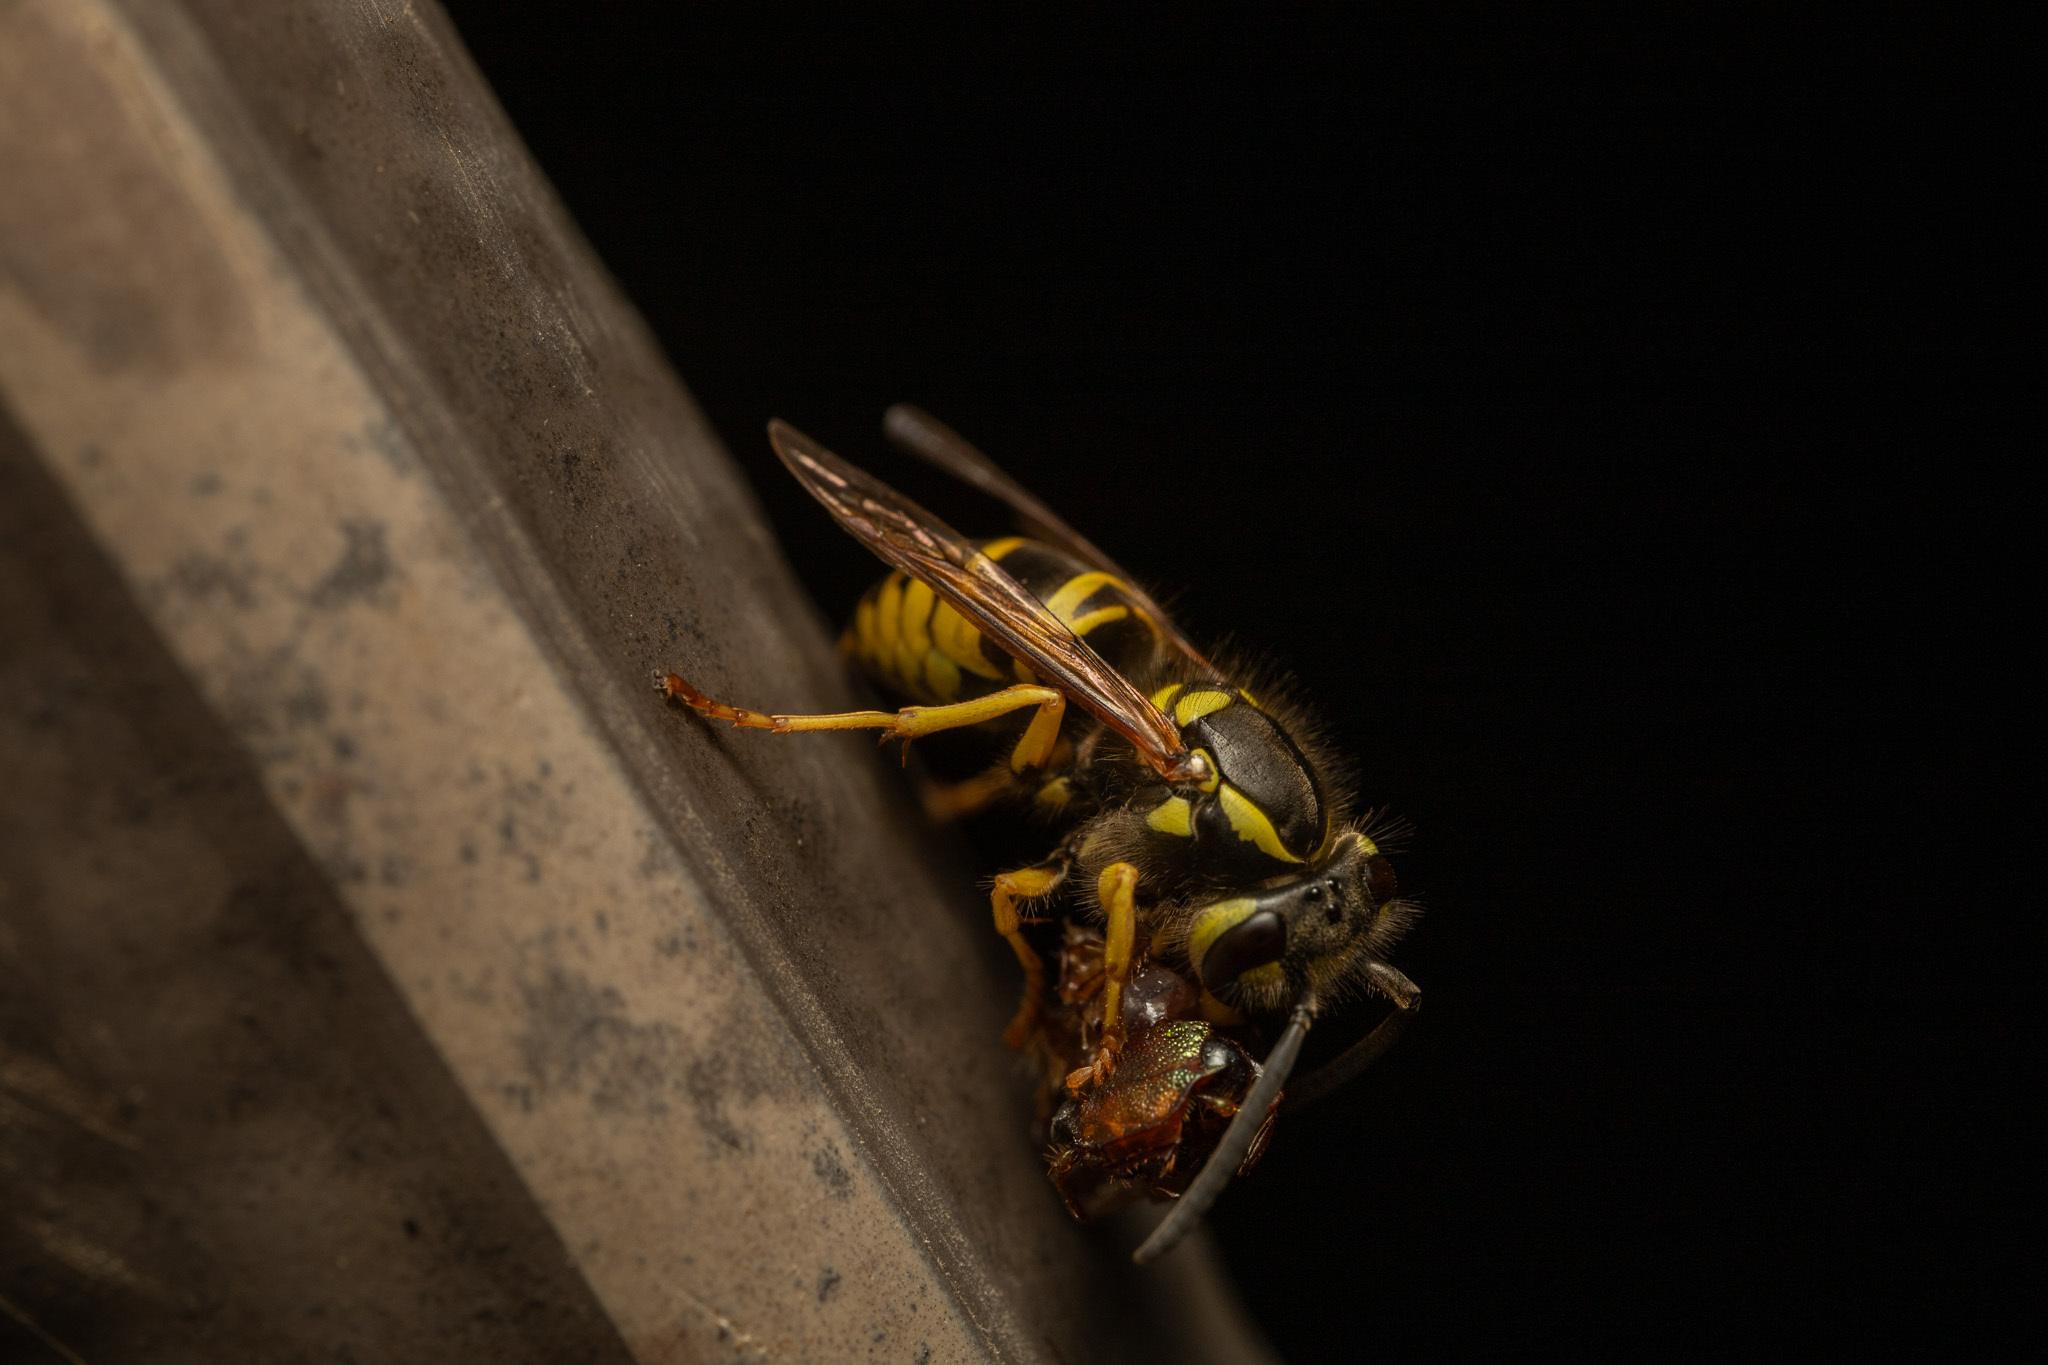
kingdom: Animalia
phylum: Arthropoda
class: Insecta
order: Hymenoptera
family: Vespidae
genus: Vespula
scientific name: Vespula maculifrons
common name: Eastern yellowjacket
